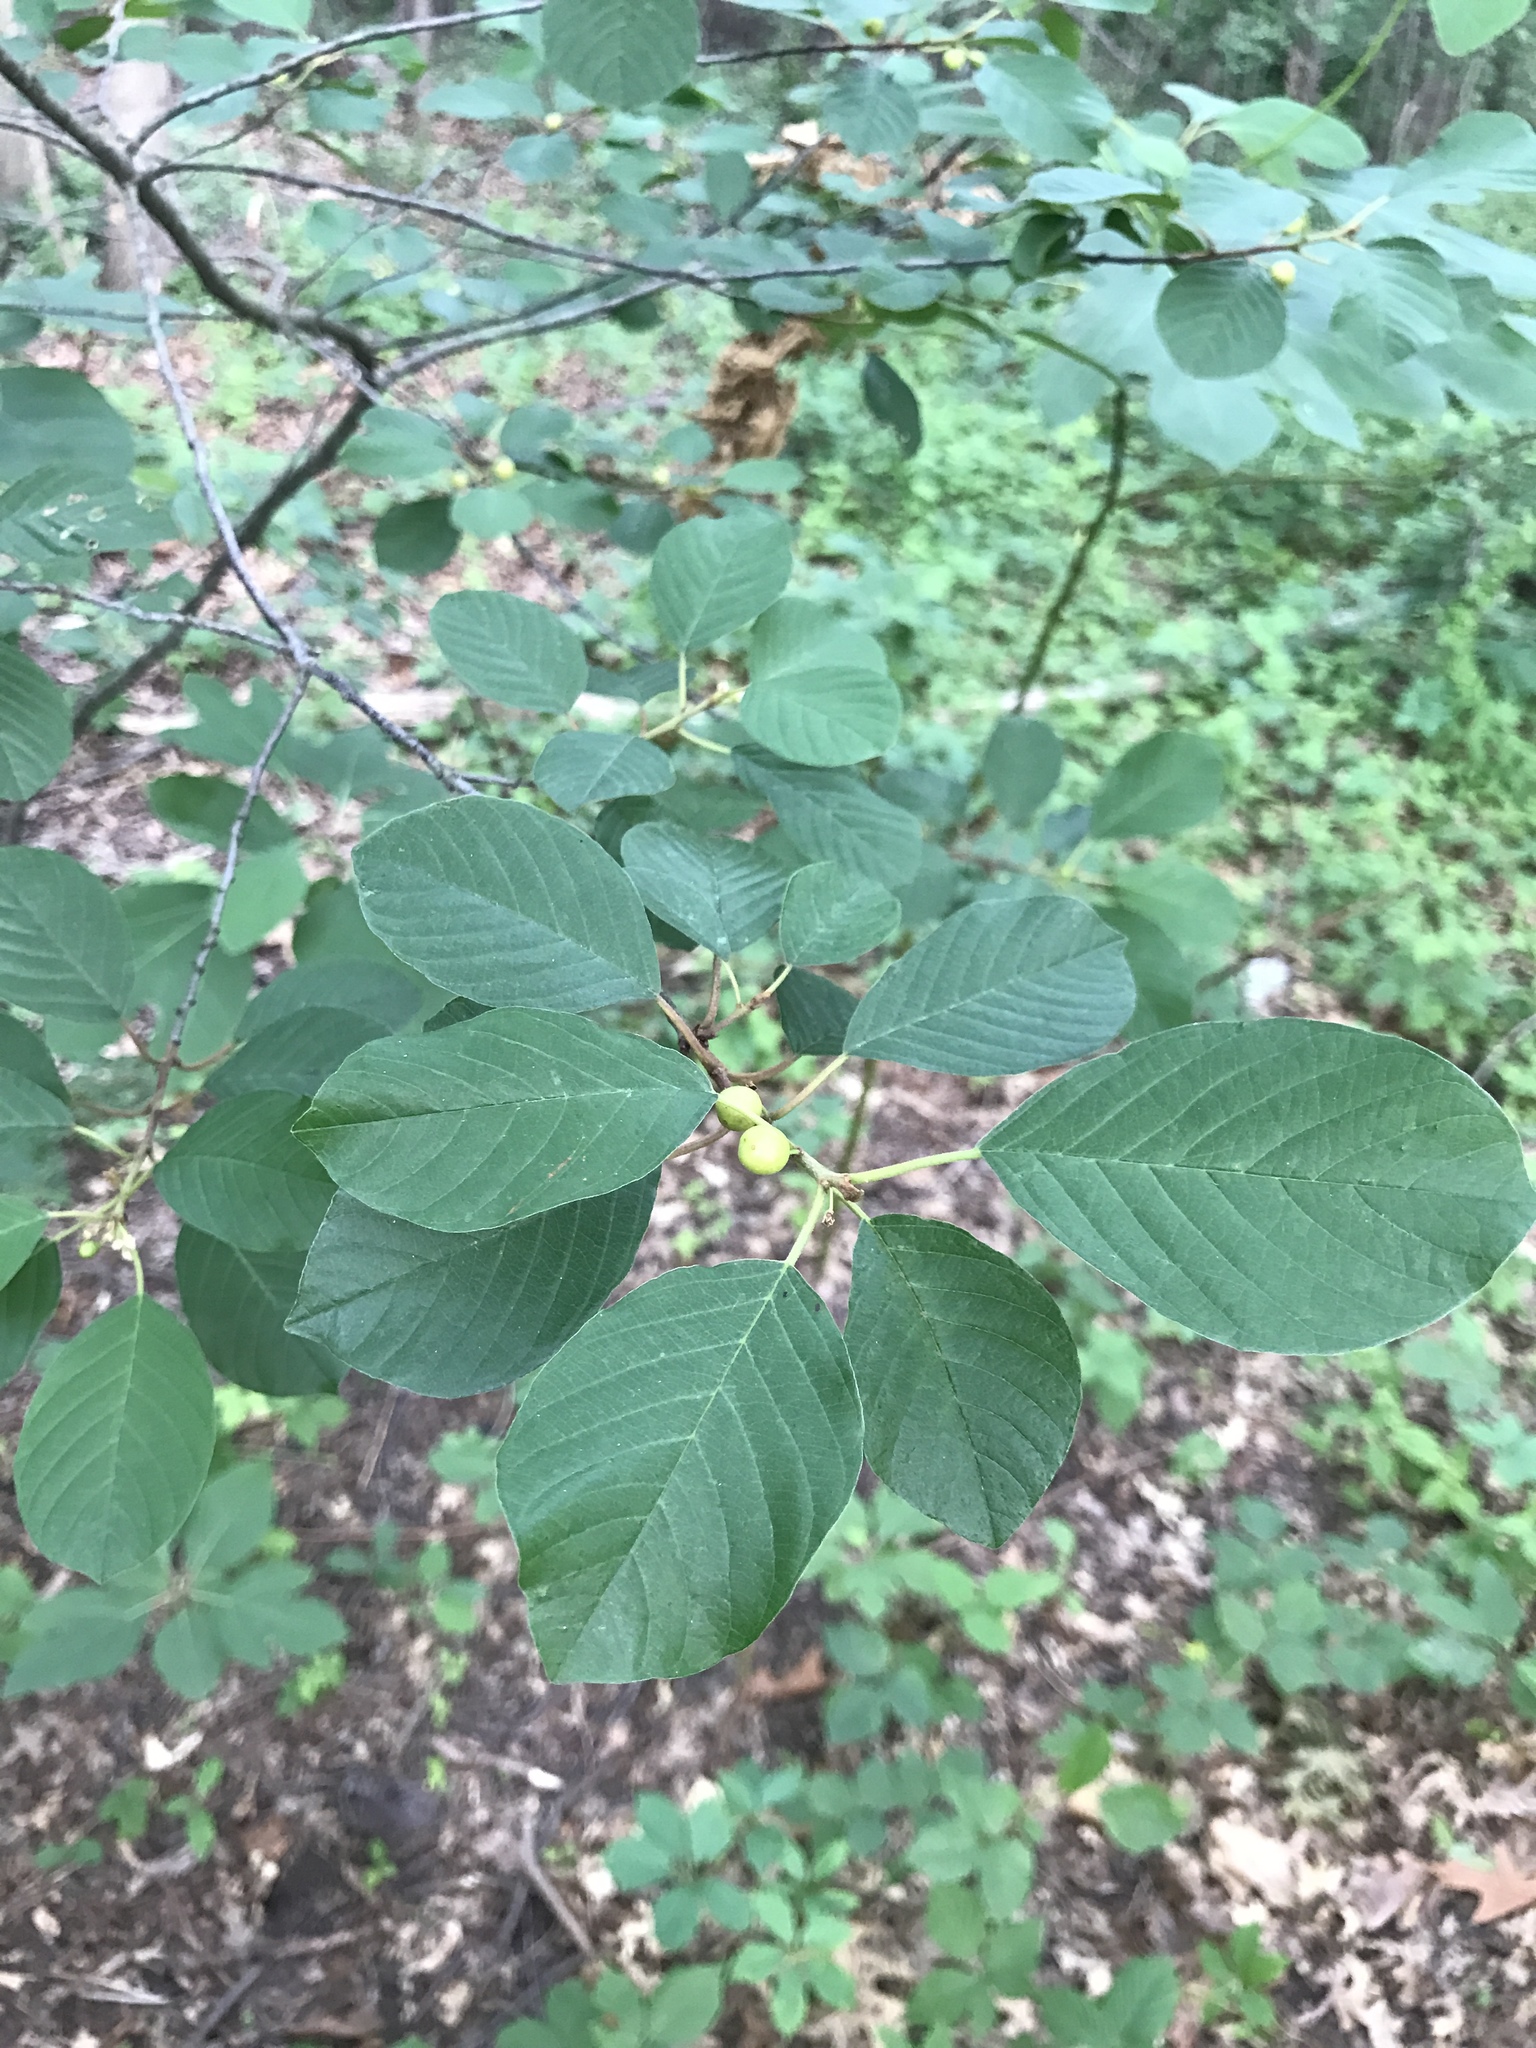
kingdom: Plantae
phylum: Tracheophyta
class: Magnoliopsida
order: Rosales
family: Rhamnaceae
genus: Frangula
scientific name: Frangula alnus
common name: Alder buckthorn
